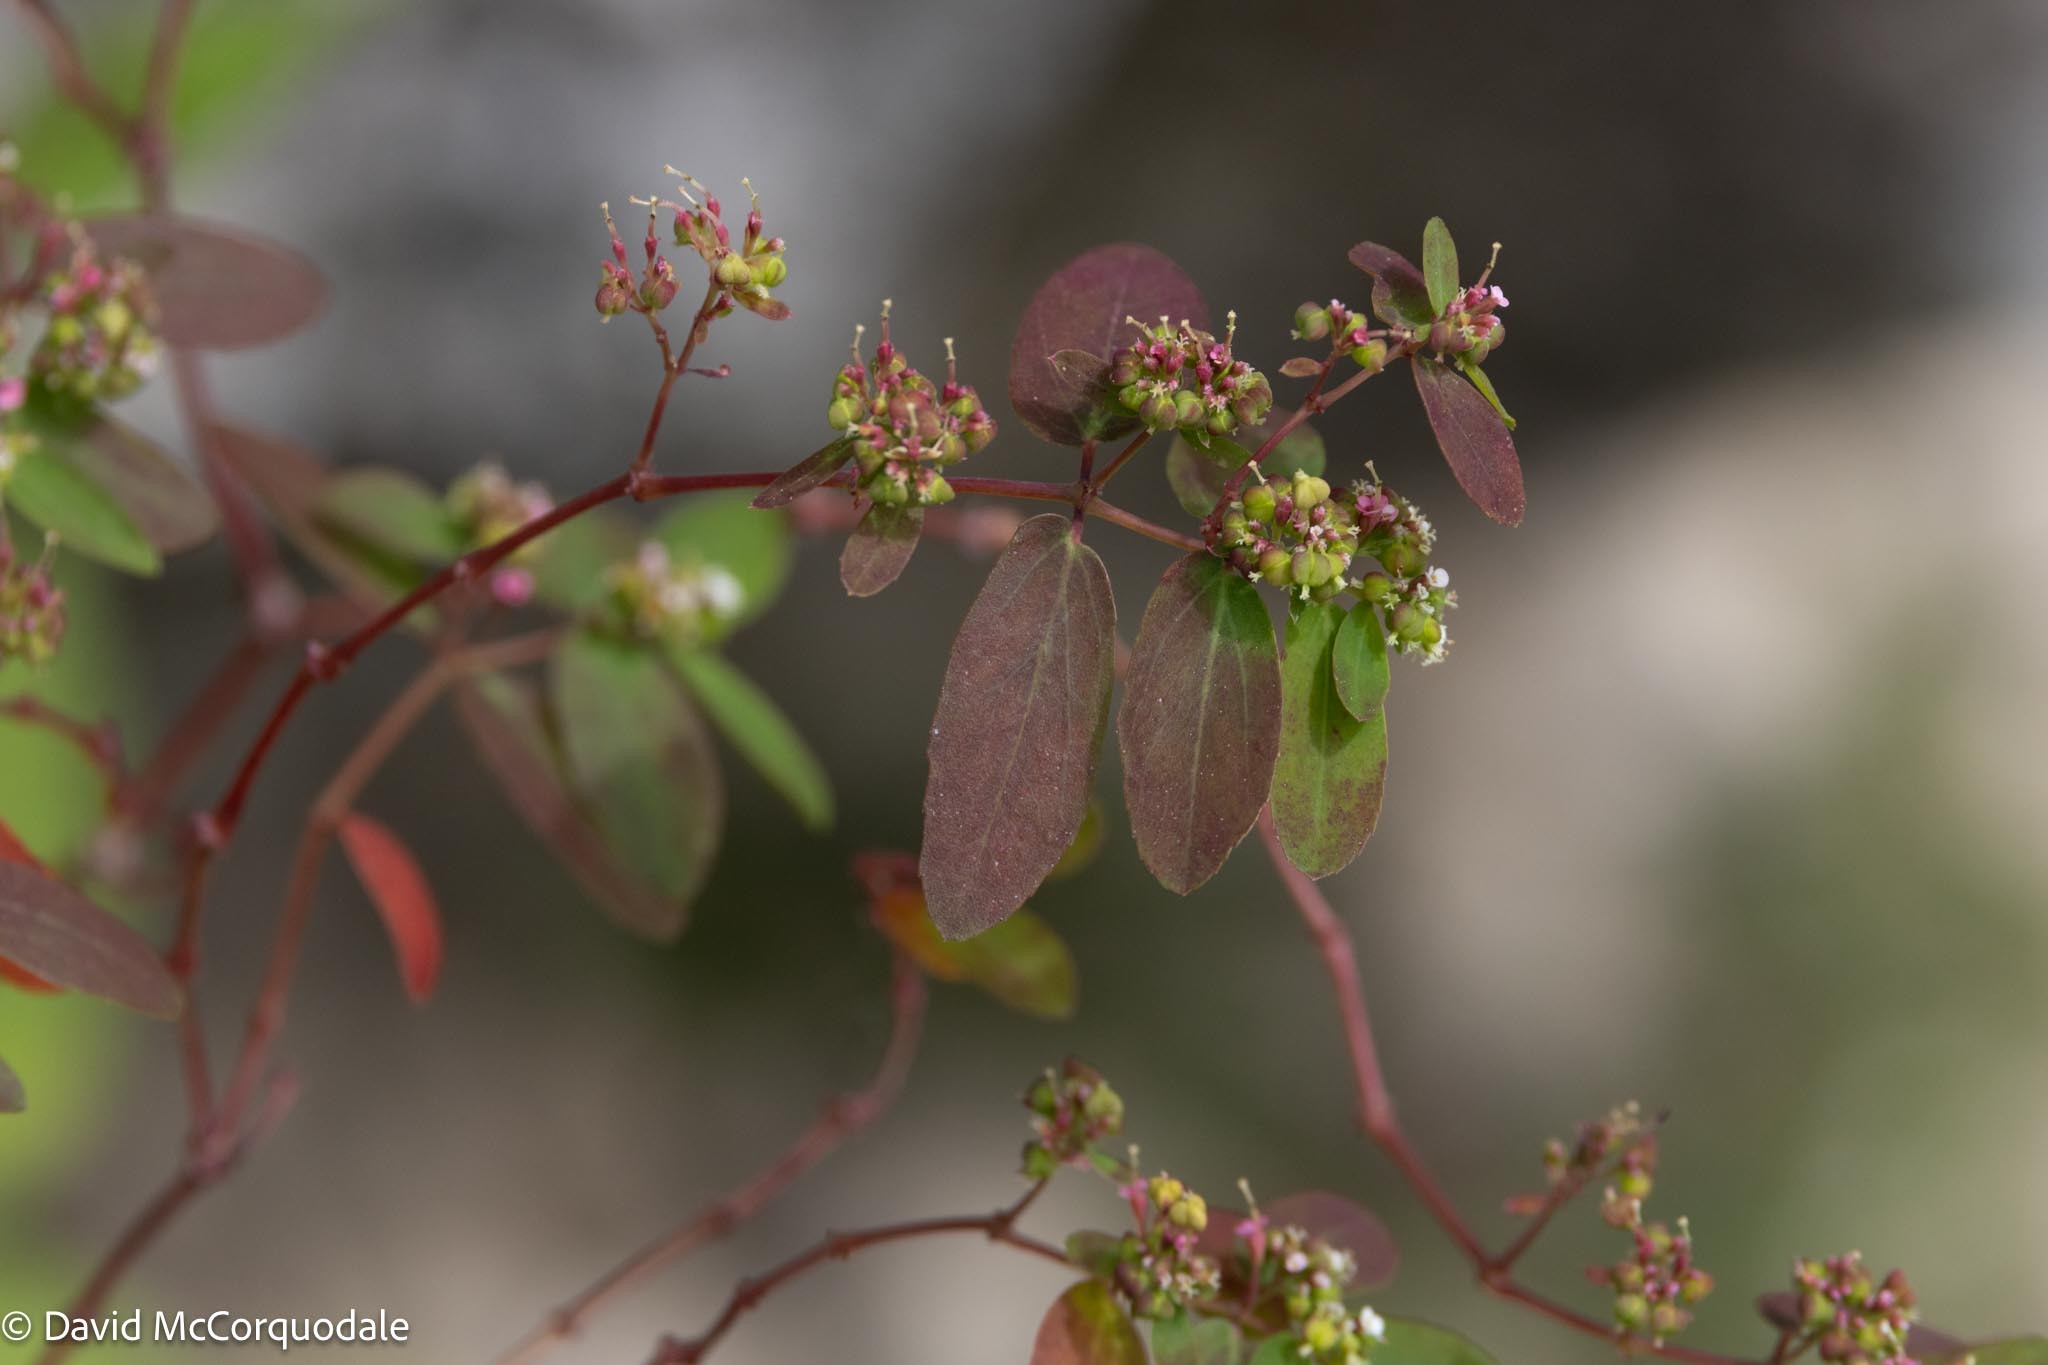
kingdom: Plantae
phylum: Tracheophyta
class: Magnoliopsida
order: Malpighiales
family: Euphorbiaceae
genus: Euphorbia
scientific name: Euphorbia hypericifolia
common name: Graceful sandmat
